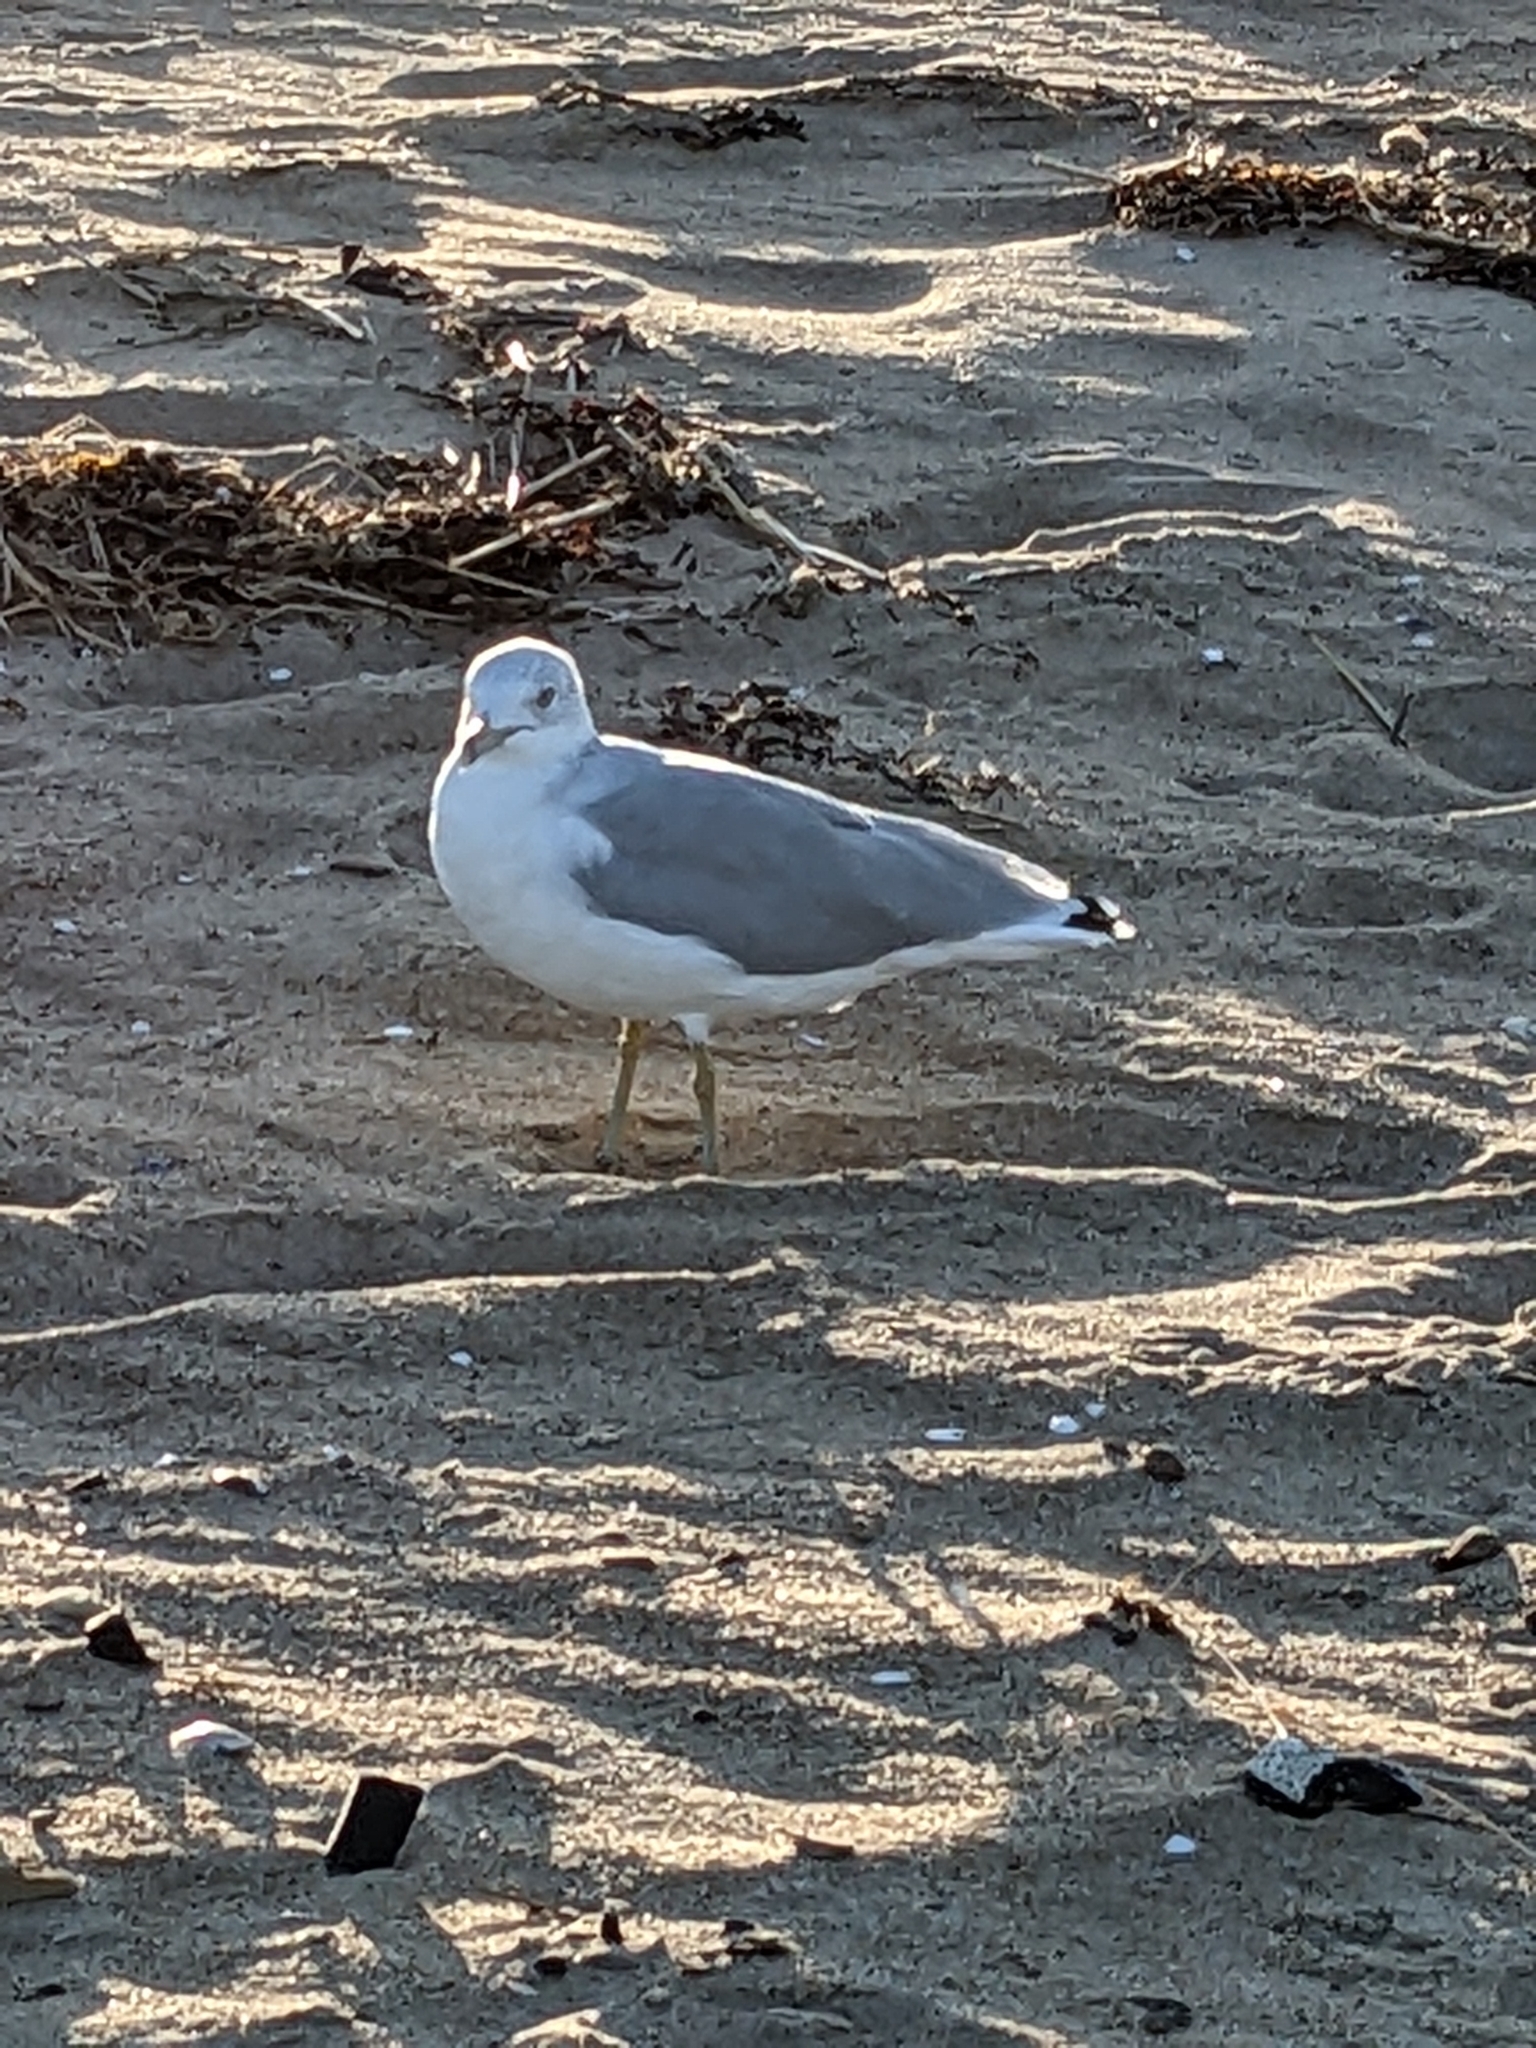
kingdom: Animalia
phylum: Chordata
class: Aves
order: Charadriiformes
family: Laridae
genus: Larus
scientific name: Larus delawarensis
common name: Ring-billed gull
